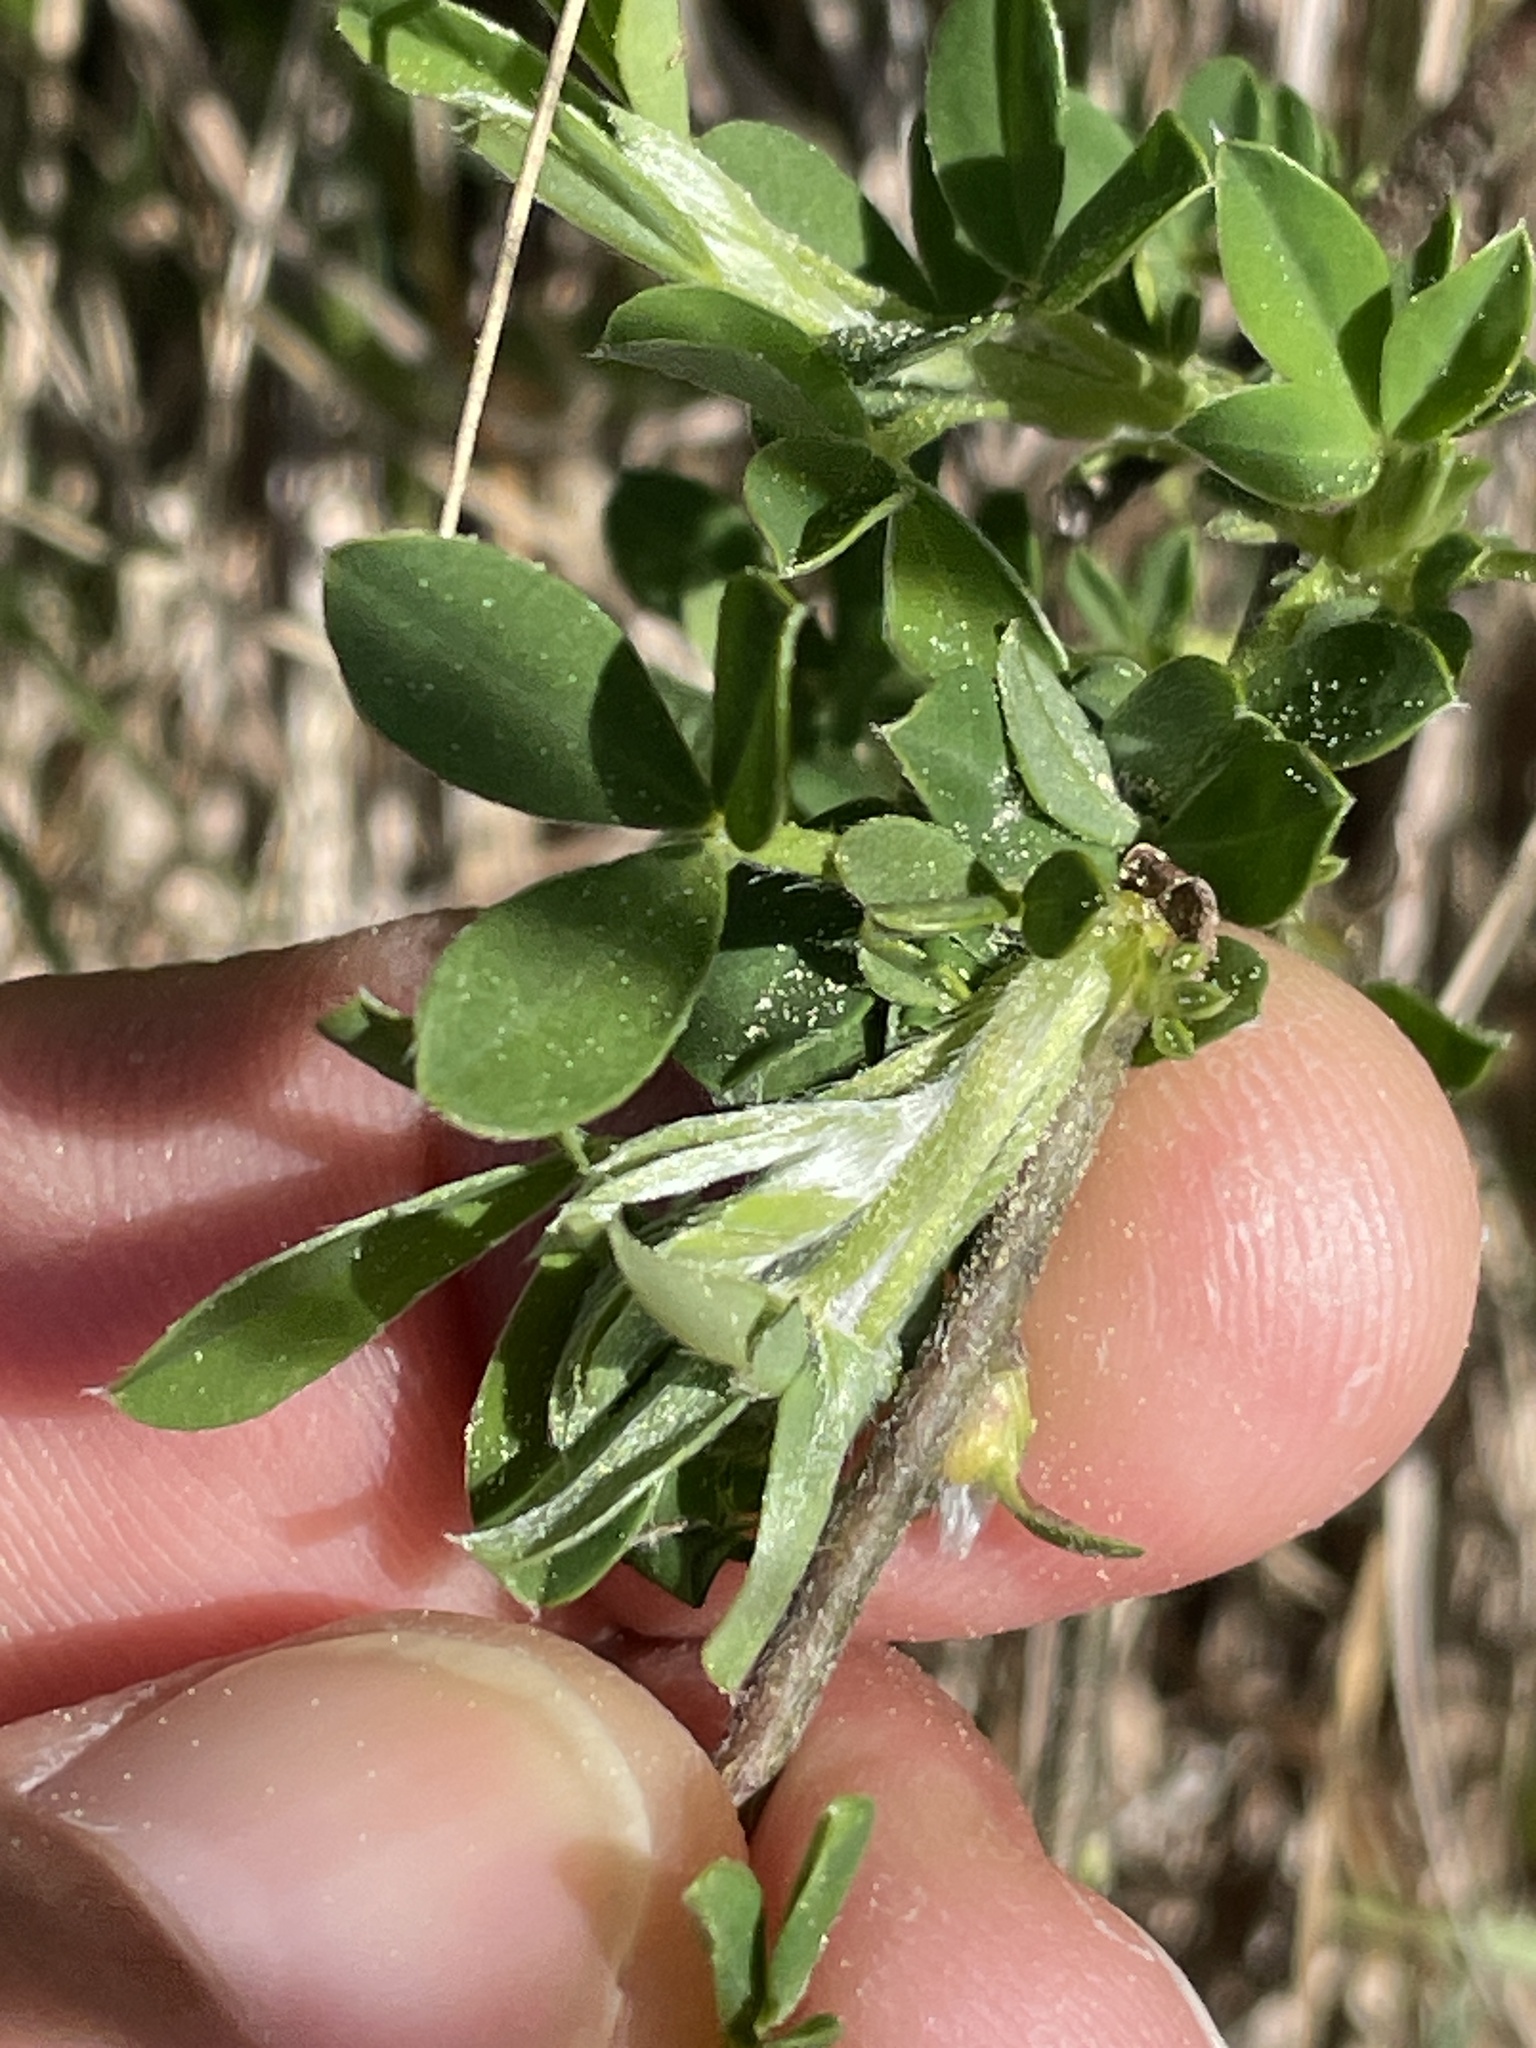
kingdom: Plantae
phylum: Tracheophyta
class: Magnoliopsida
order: Fabales
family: Fabaceae
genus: Chamaecytisus
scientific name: Chamaecytisus supinus
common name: Clustered broom
